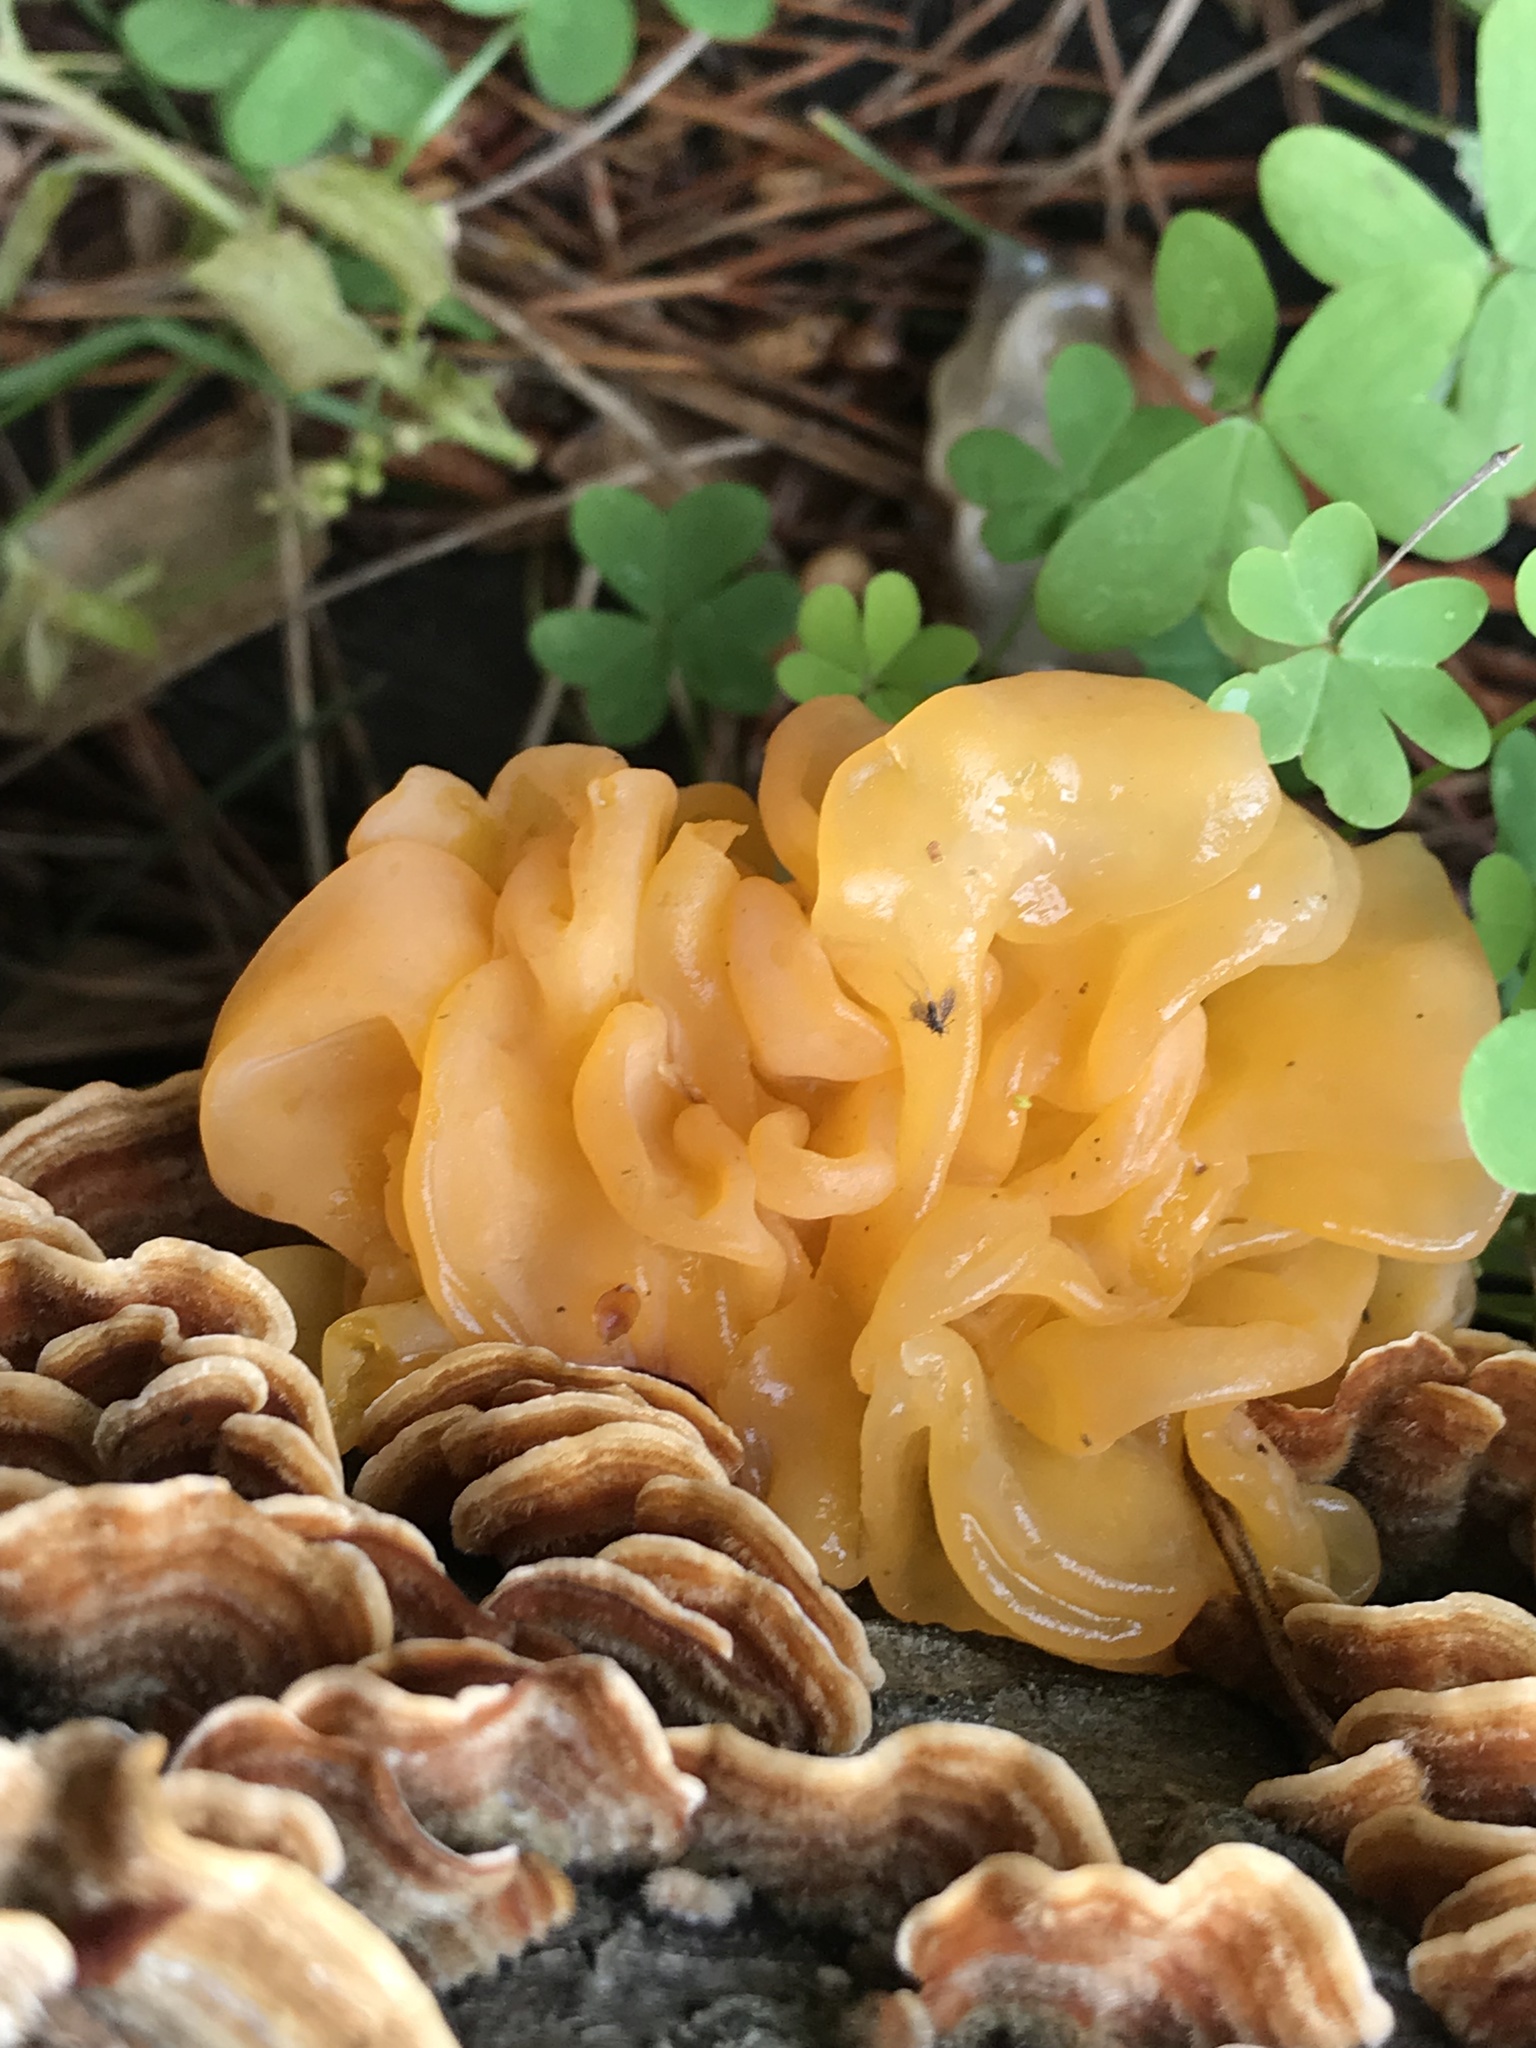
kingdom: Fungi
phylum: Basidiomycota
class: Tremellomycetes
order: Tremellales
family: Naemateliaceae
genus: Naematelia
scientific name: Naematelia aurantia
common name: Golden ear
